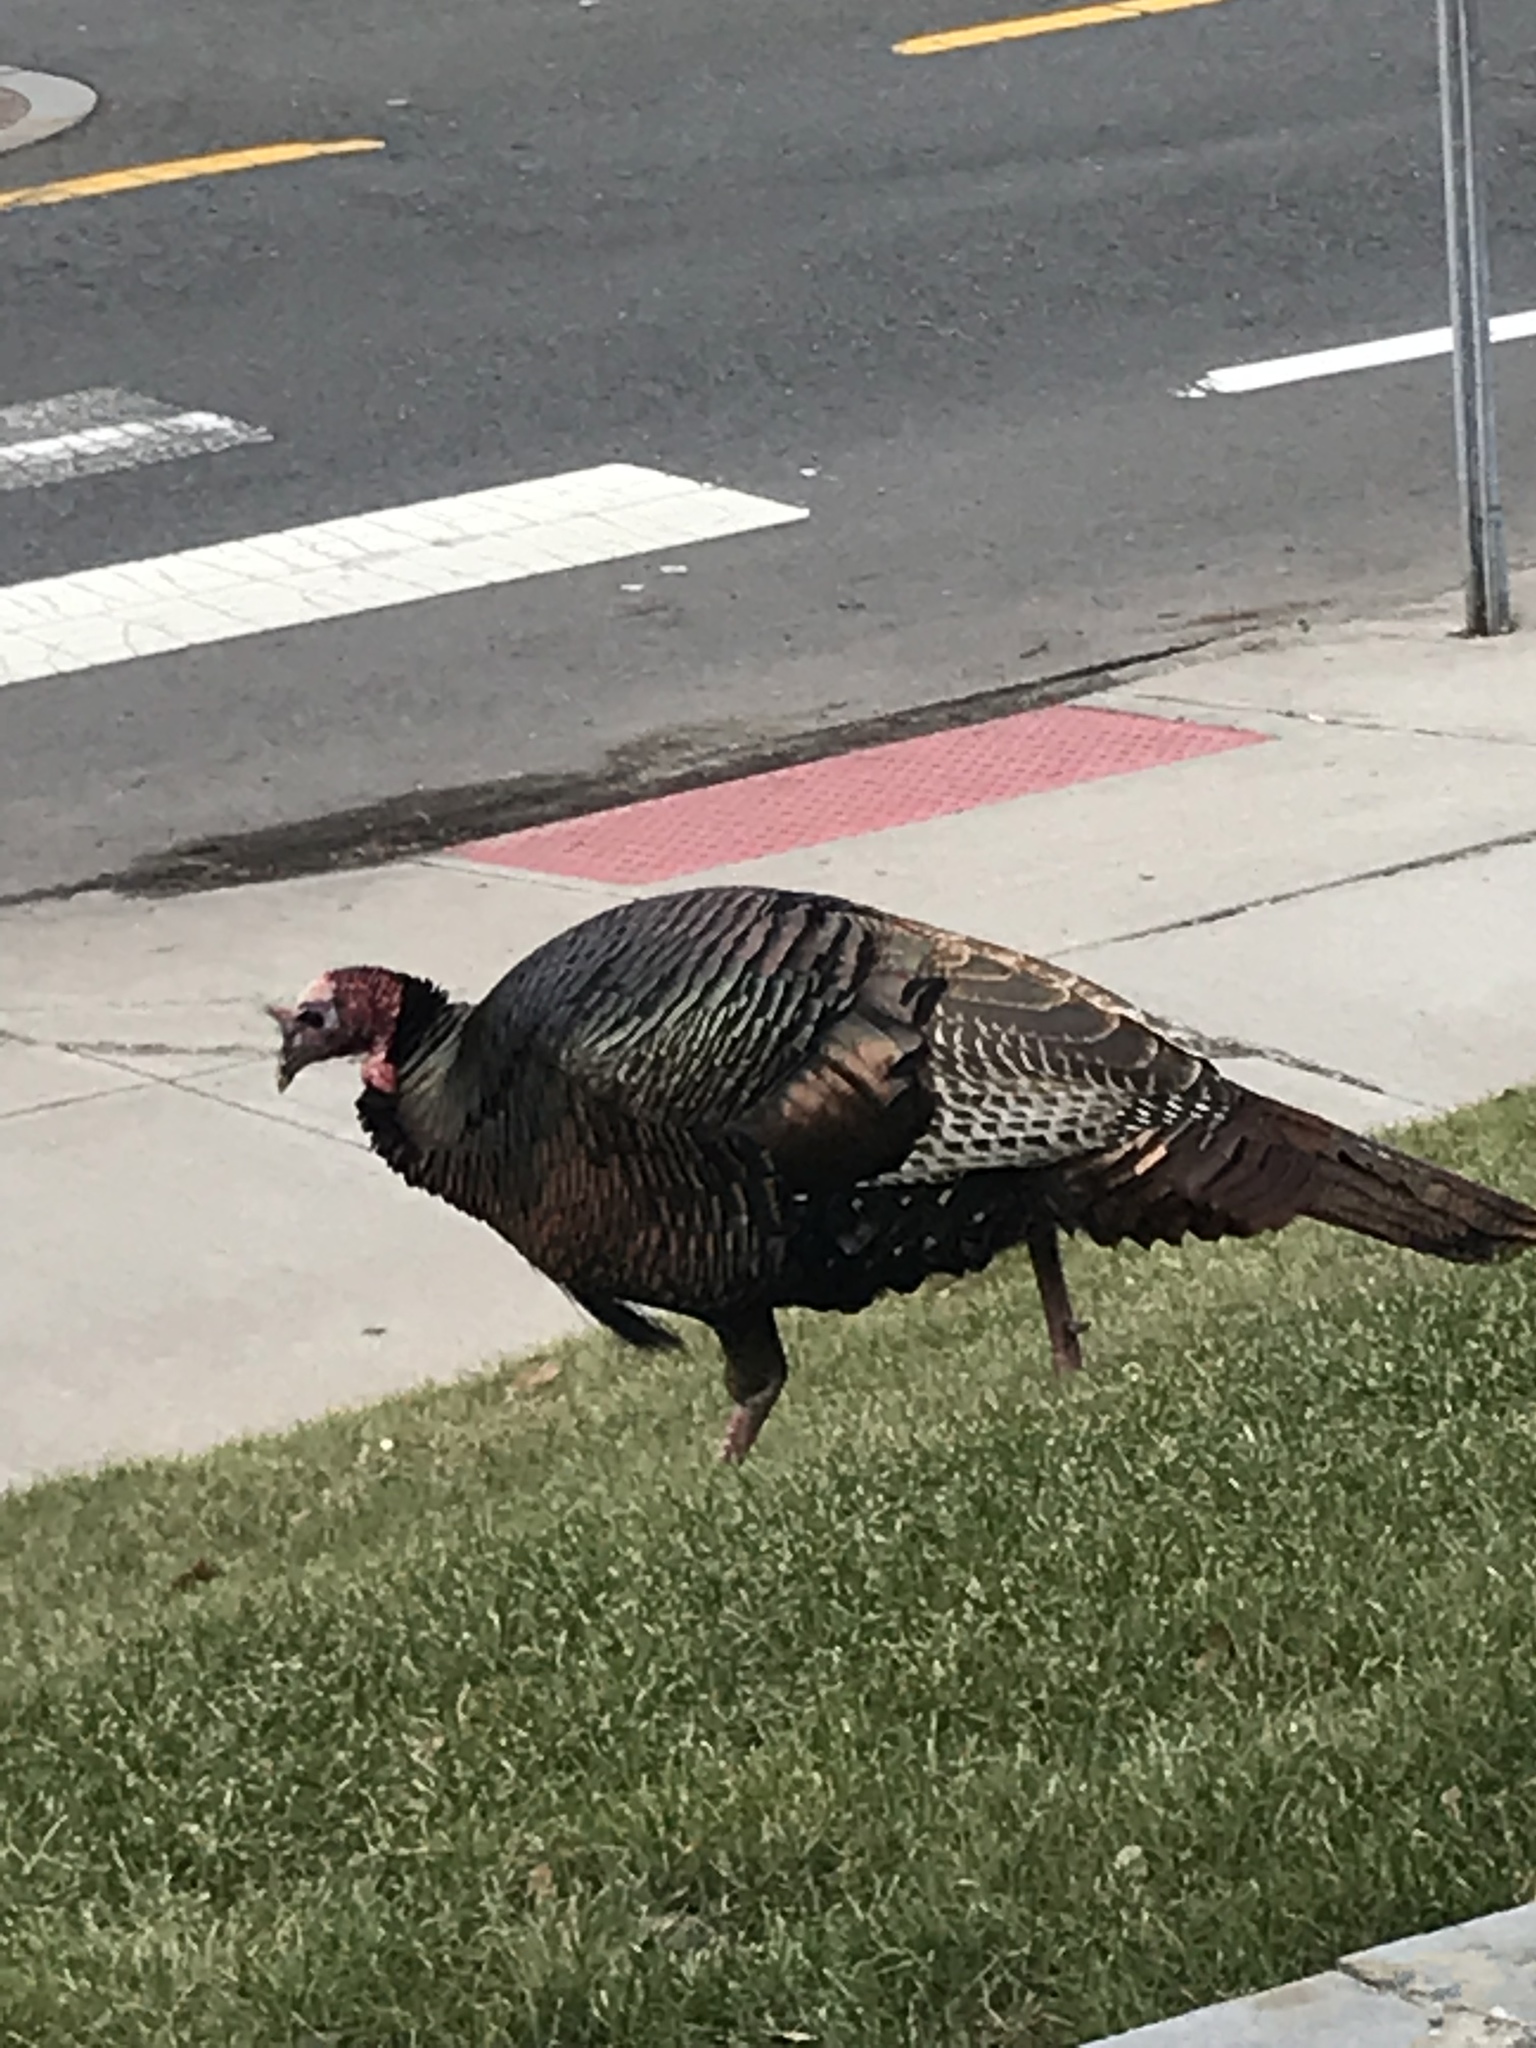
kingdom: Animalia
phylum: Chordata
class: Aves
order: Galliformes
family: Phasianidae
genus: Meleagris
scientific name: Meleagris gallopavo
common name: Wild turkey
